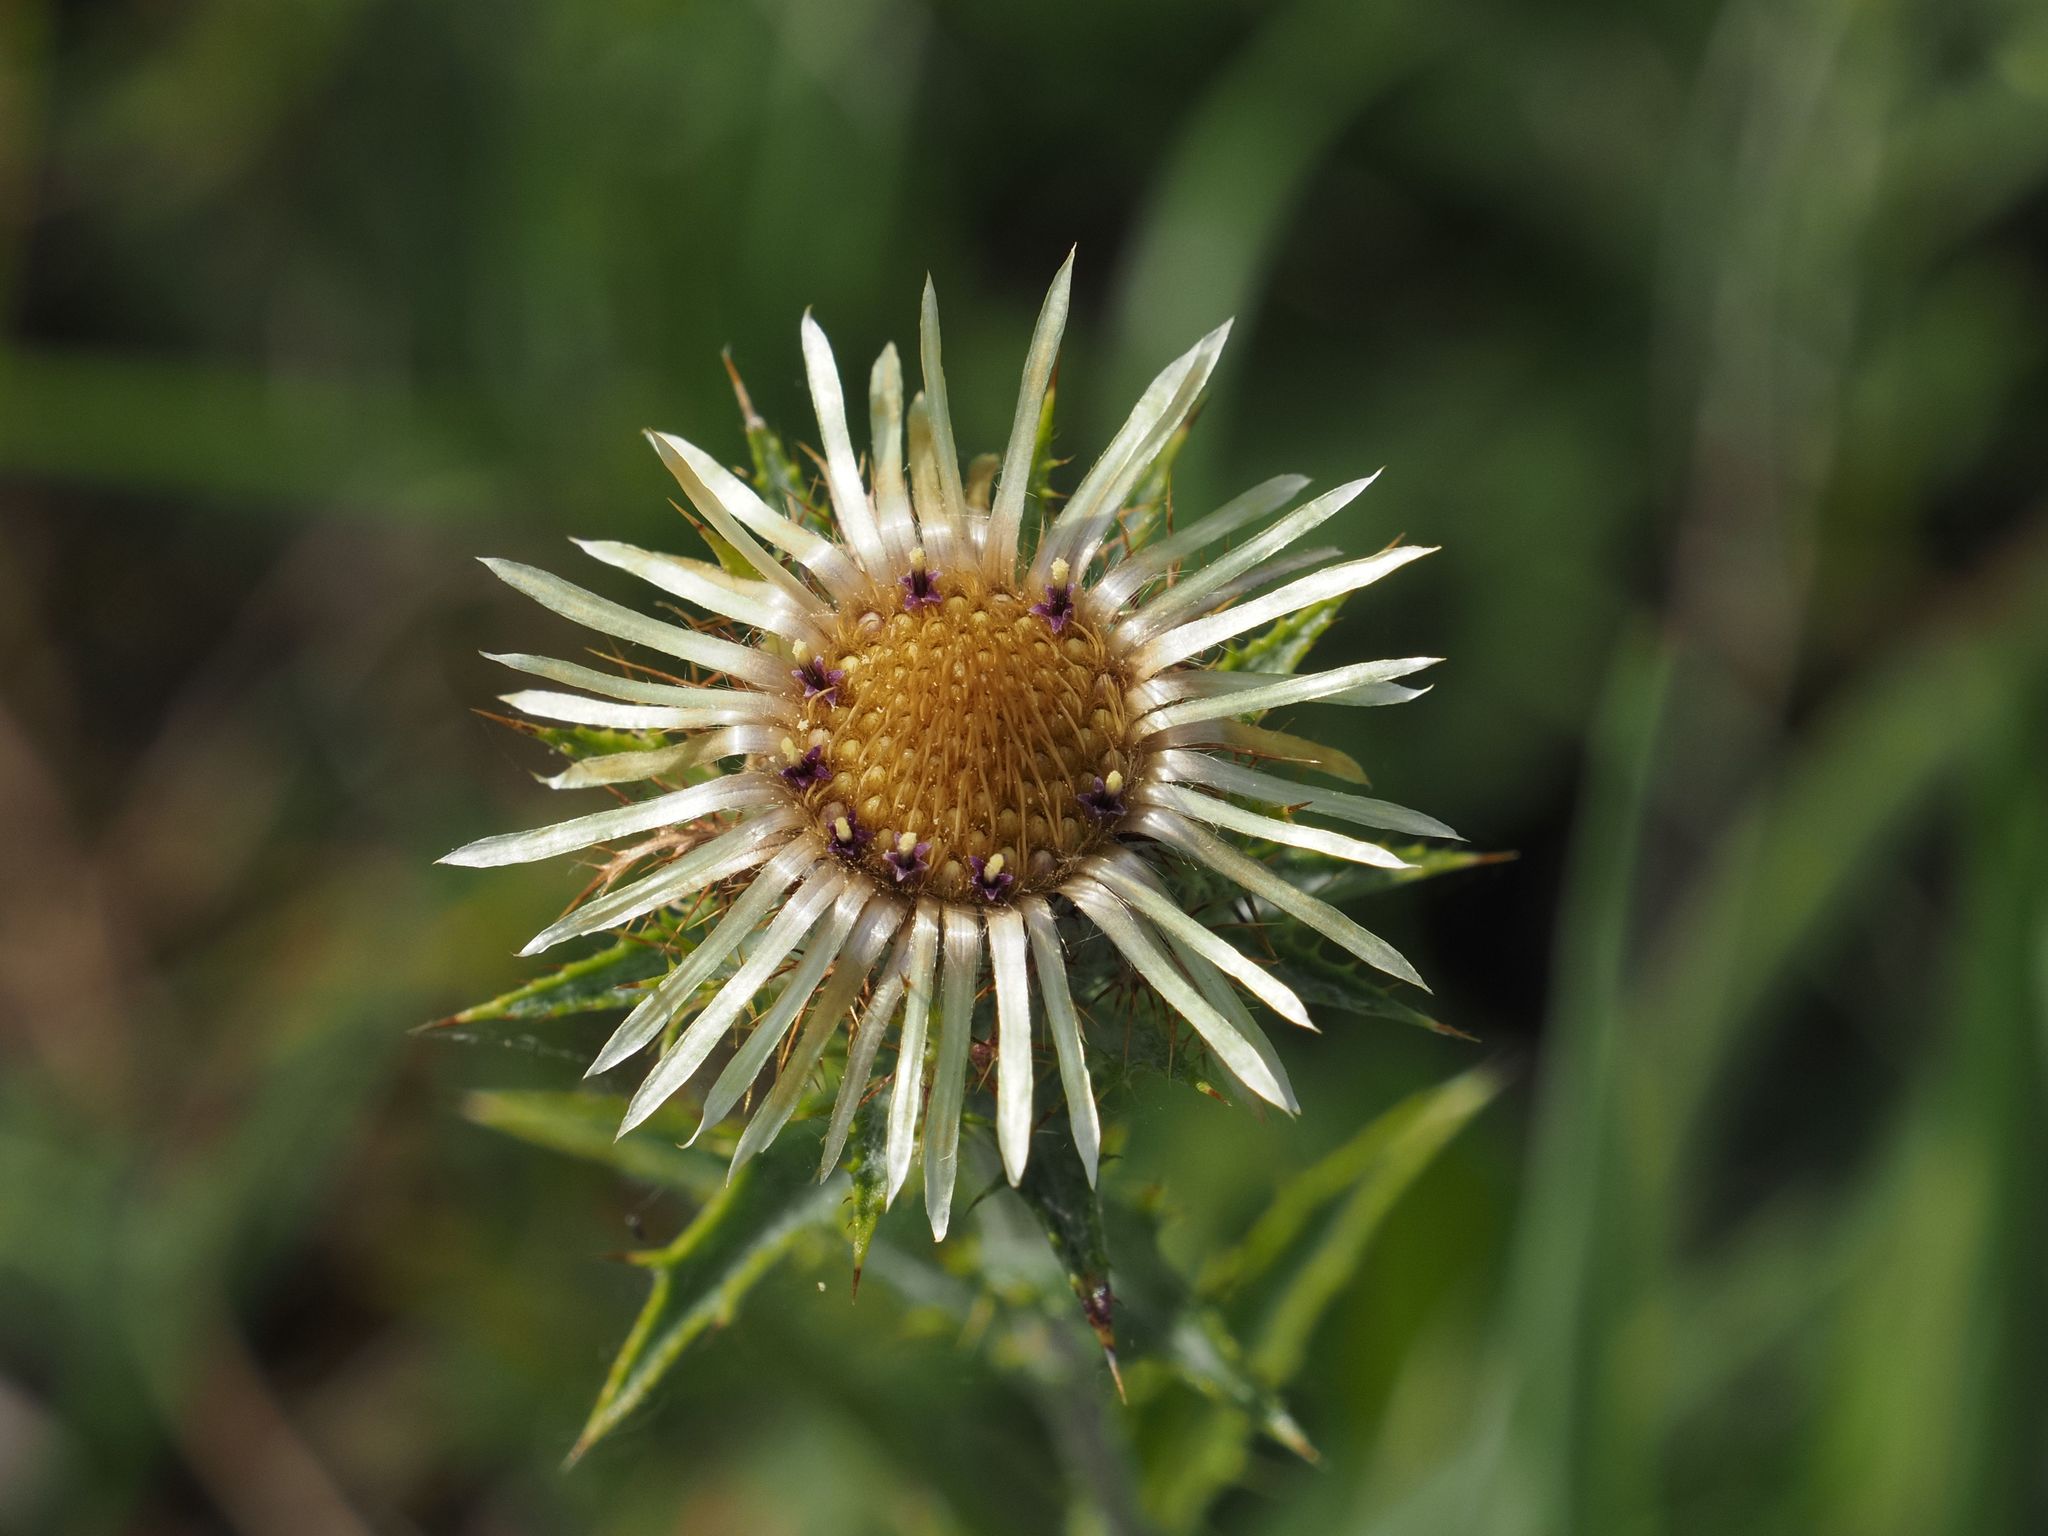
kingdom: Plantae
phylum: Tracheophyta
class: Magnoliopsida
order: Asterales
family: Asteraceae
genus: Carlina
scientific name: Carlina vulgaris
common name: Carline thistle
